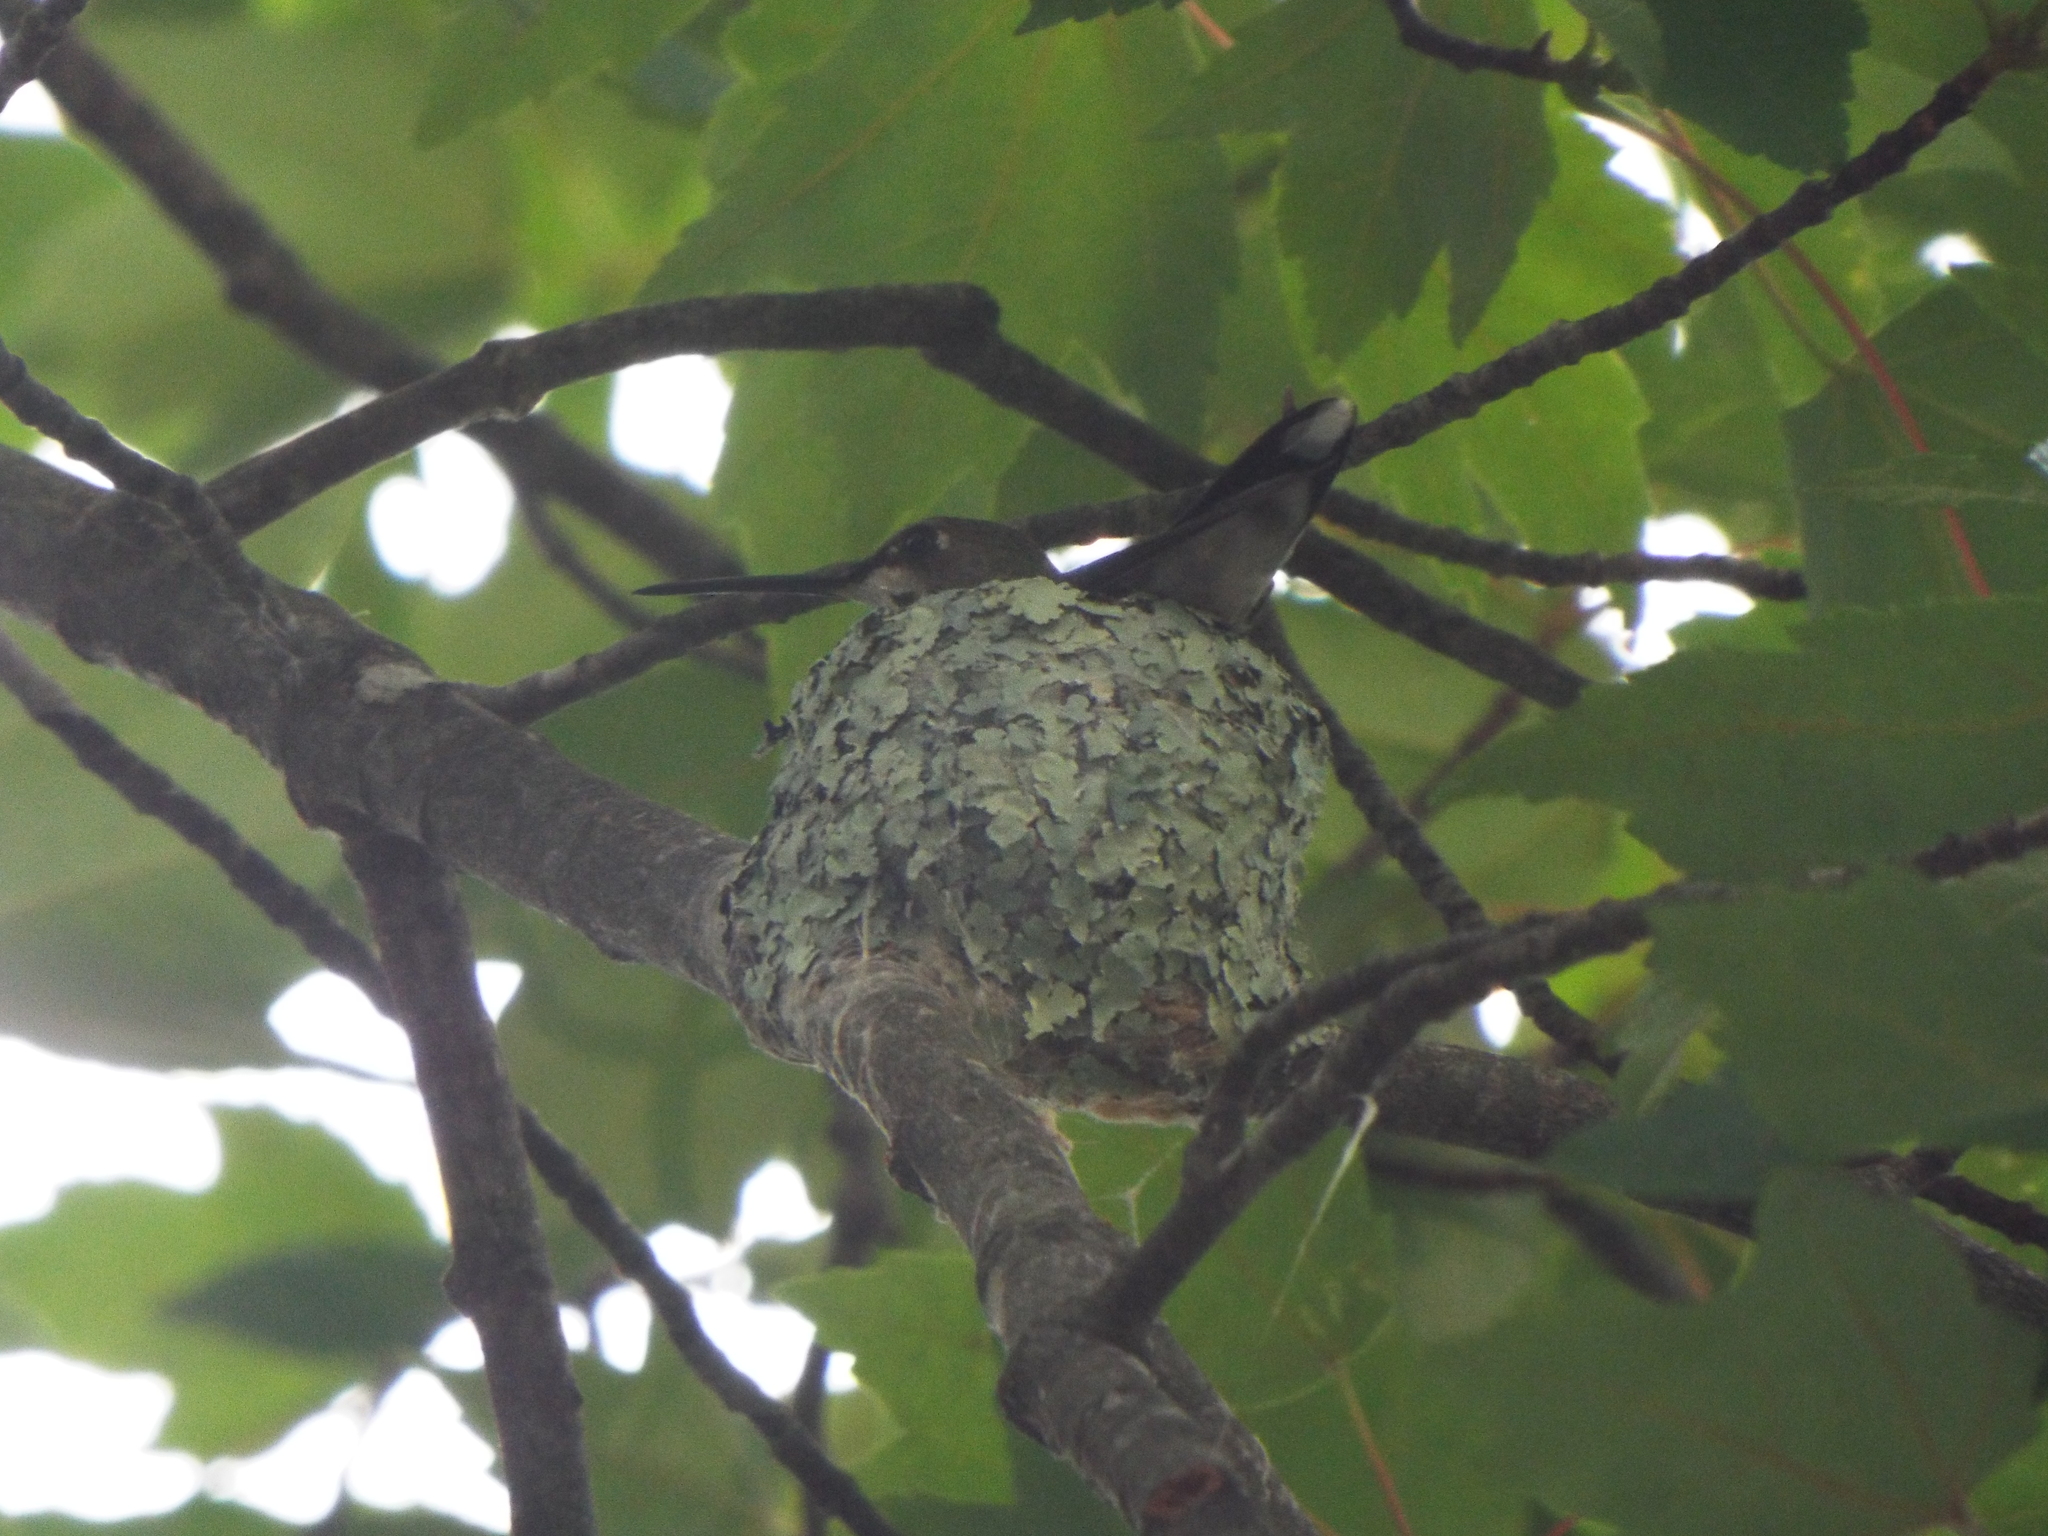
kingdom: Animalia
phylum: Chordata
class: Aves
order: Apodiformes
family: Trochilidae
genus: Archilochus
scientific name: Archilochus colubris
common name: Ruby-throated hummingbird
